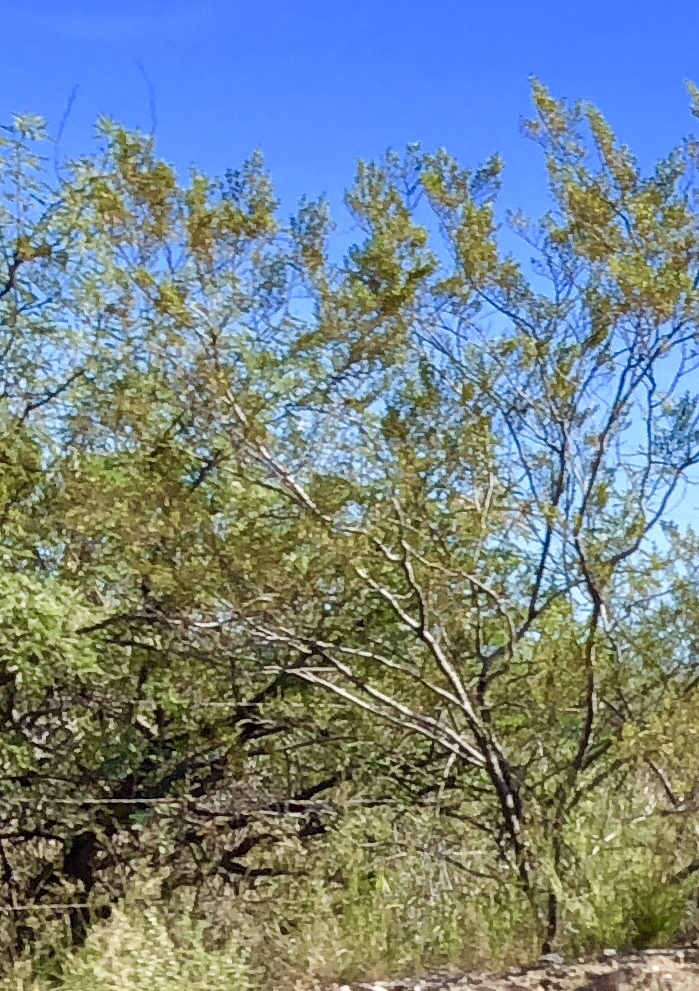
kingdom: Plantae
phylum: Tracheophyta
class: Magnoliopsida
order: Zygophyllales
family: Zygophyllaceae
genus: Larrea
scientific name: Larrea tridentata
